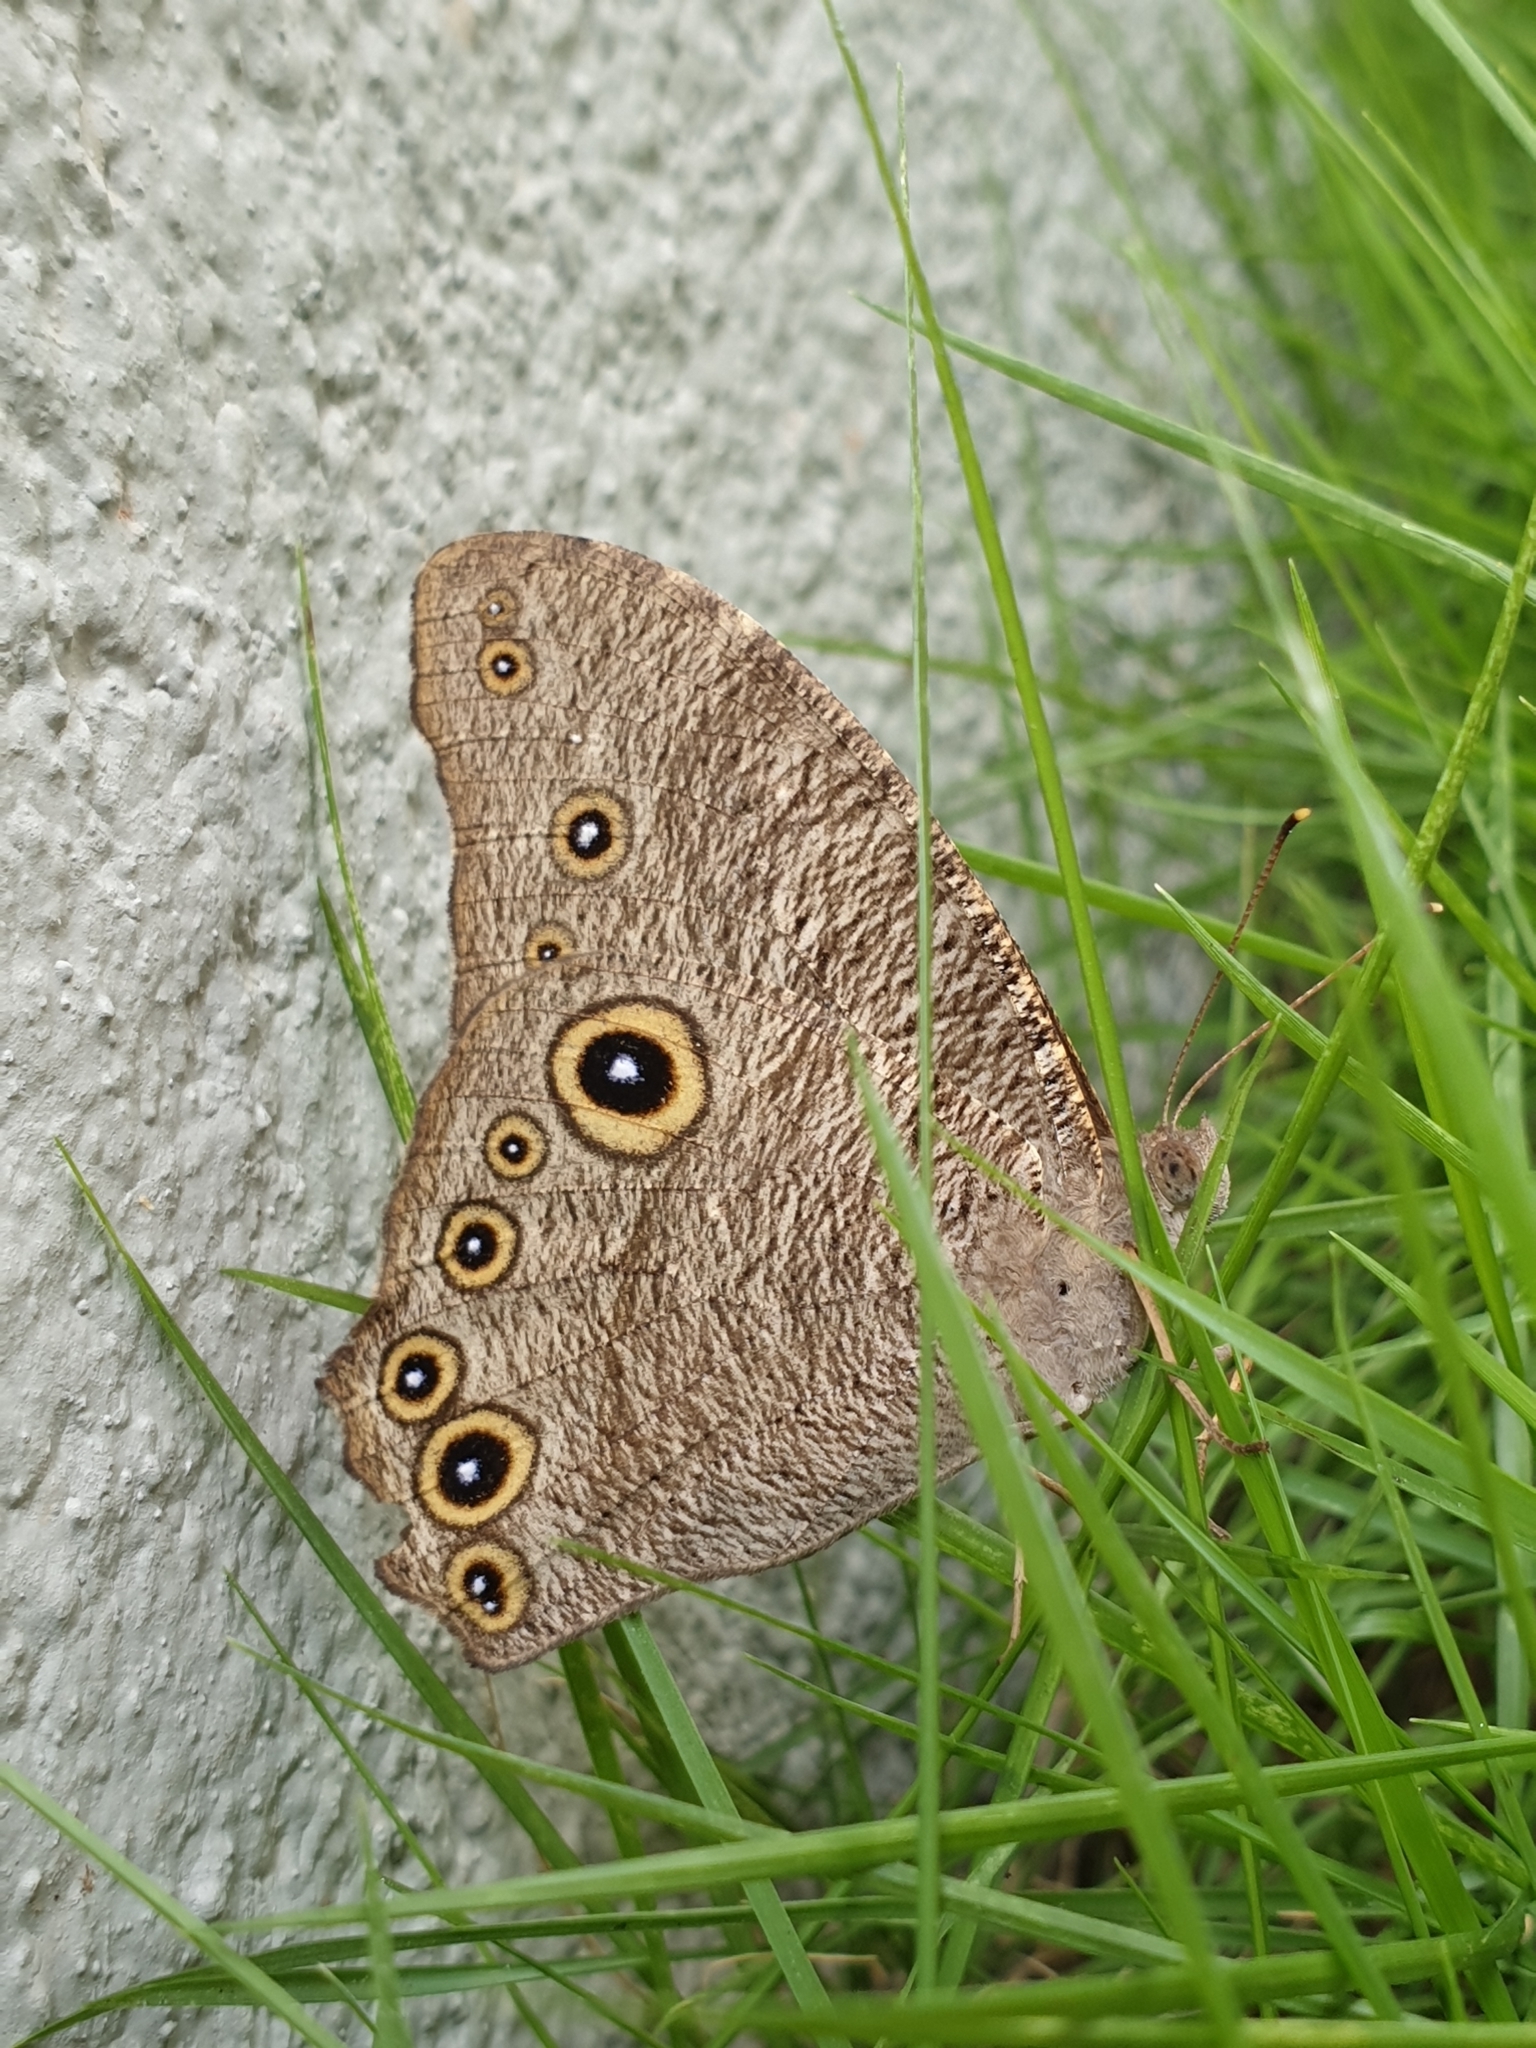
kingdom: Animalia
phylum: Arthropoda
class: Insecta
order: Lepidoptera
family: Nymphalidae
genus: Melanitis
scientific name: Melanitis leda
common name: Twilight brown
